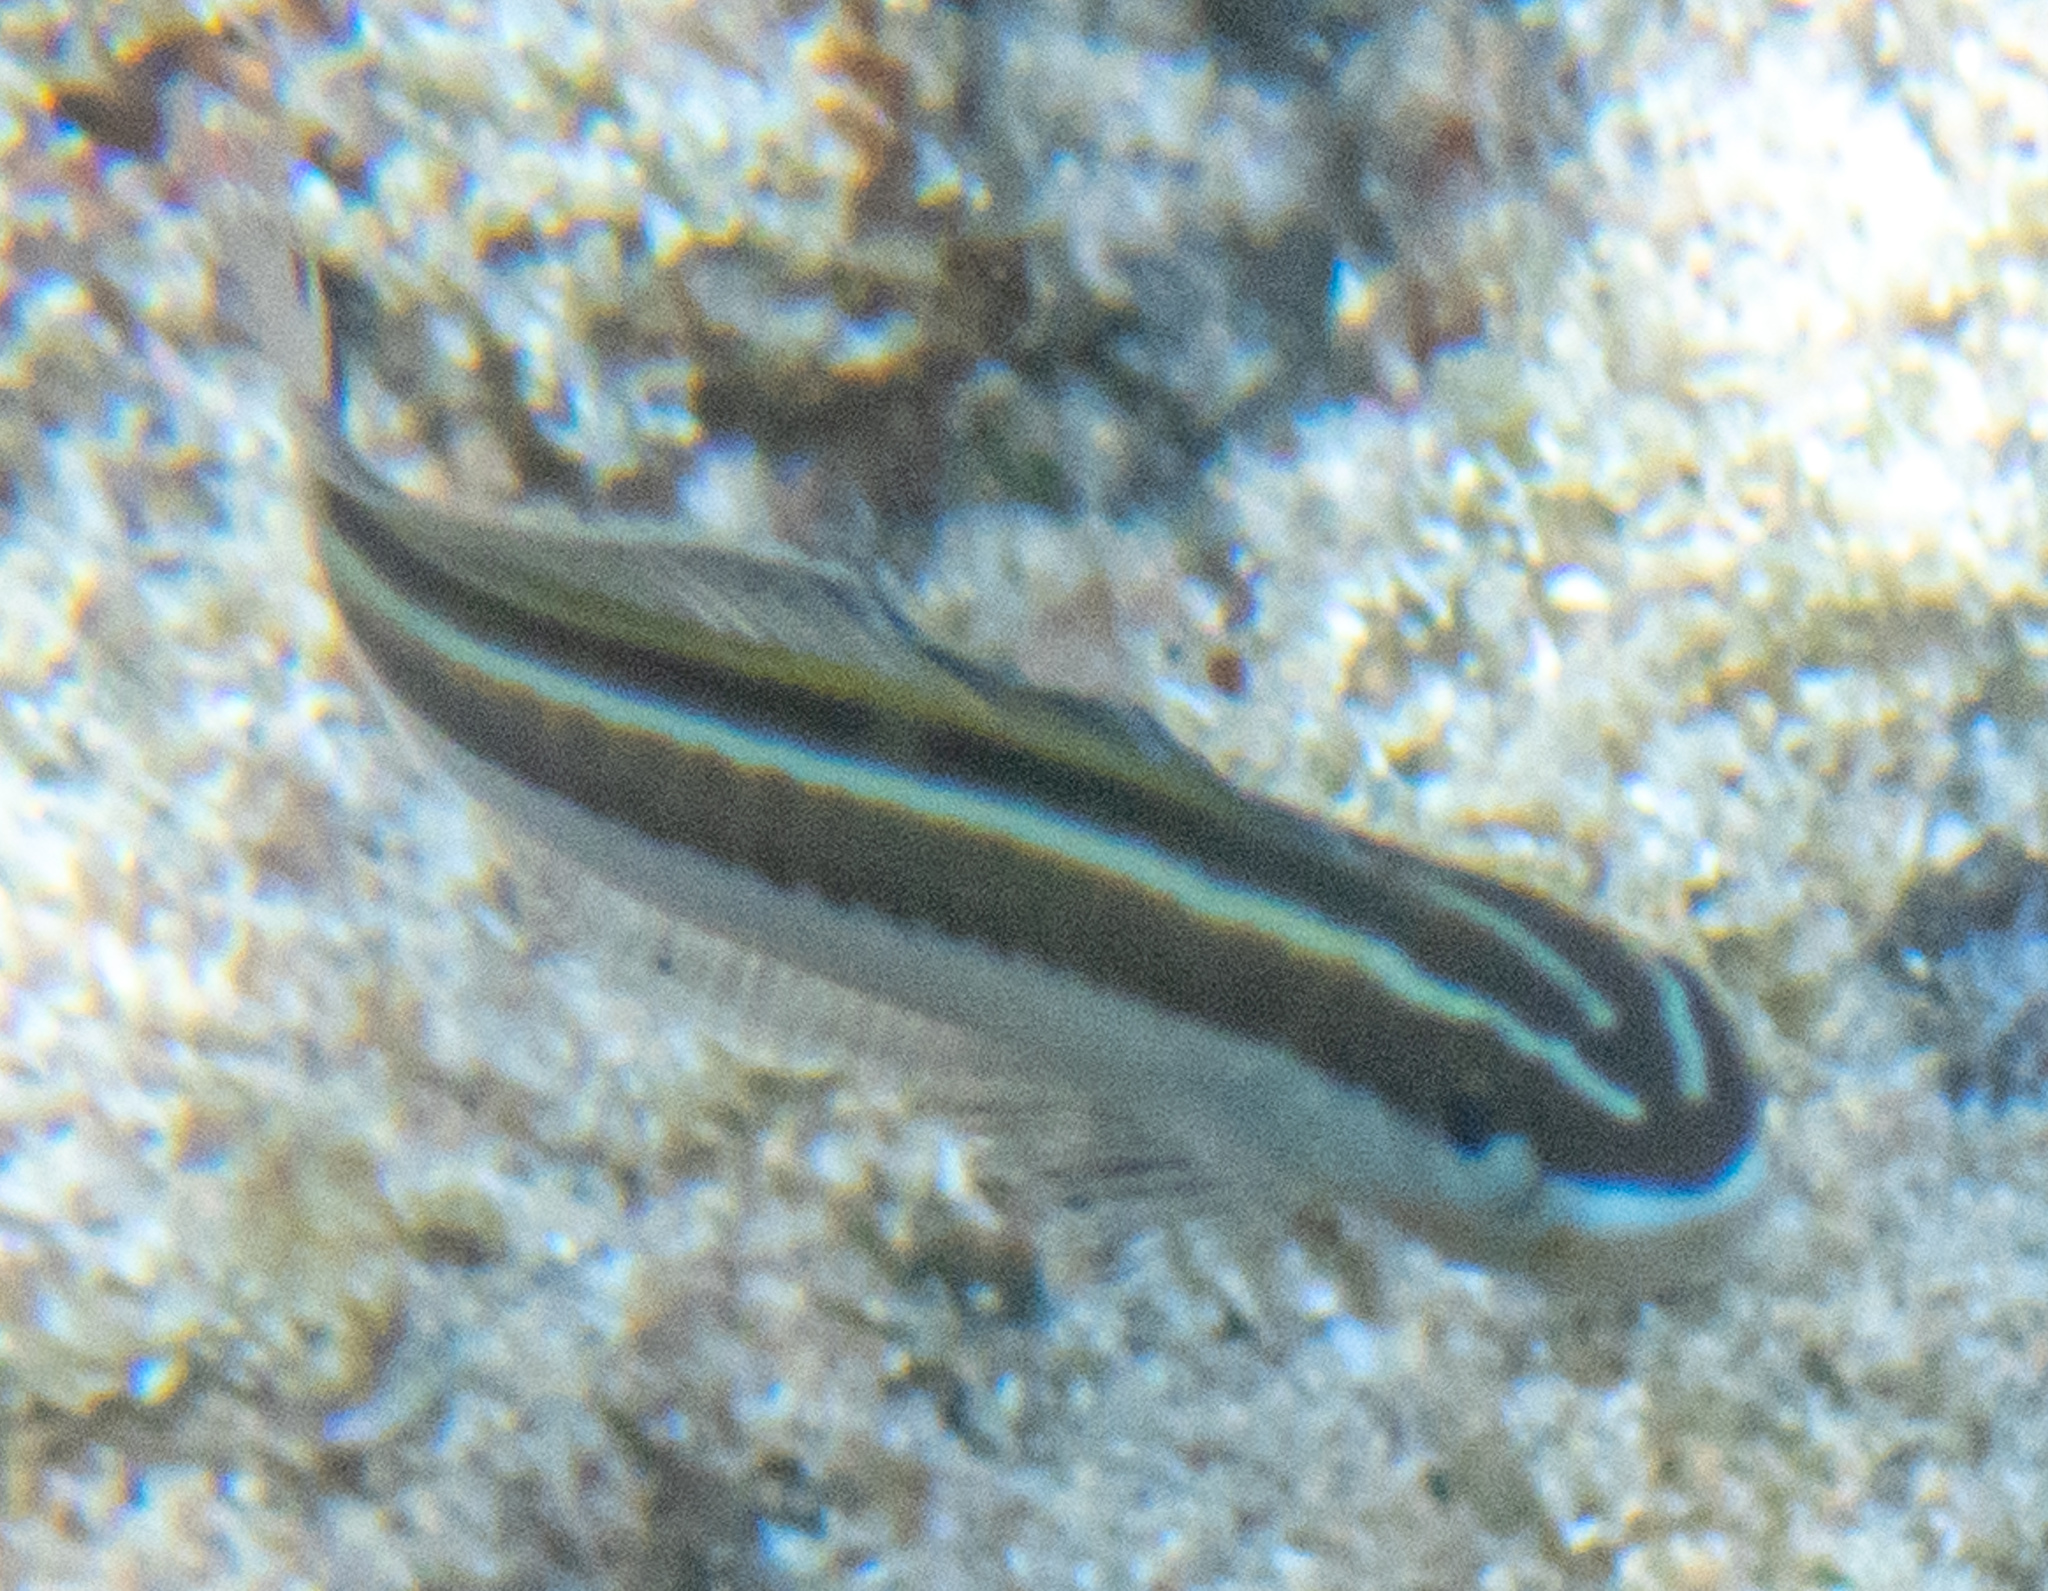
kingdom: Animalia
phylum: Chordata
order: Perciformes
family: Blenniidae
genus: Plagiotremus
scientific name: Plagiotremus goslinei
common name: Biting blenny
